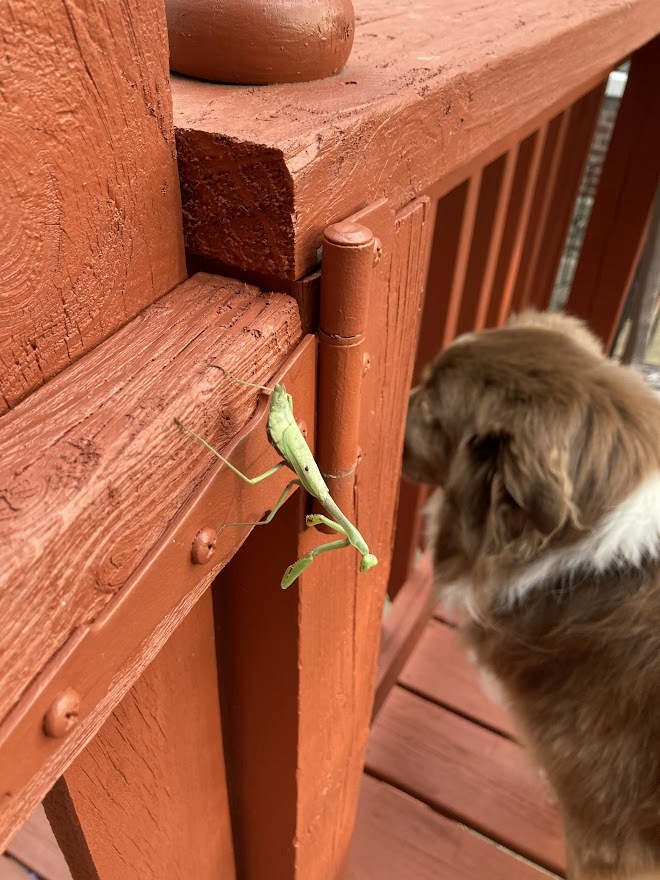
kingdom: Animalia
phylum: Arthropoda
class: Insecta
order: Mantodea
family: Mantidae
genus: Stagmomantis
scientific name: Stagmomantis carolina
